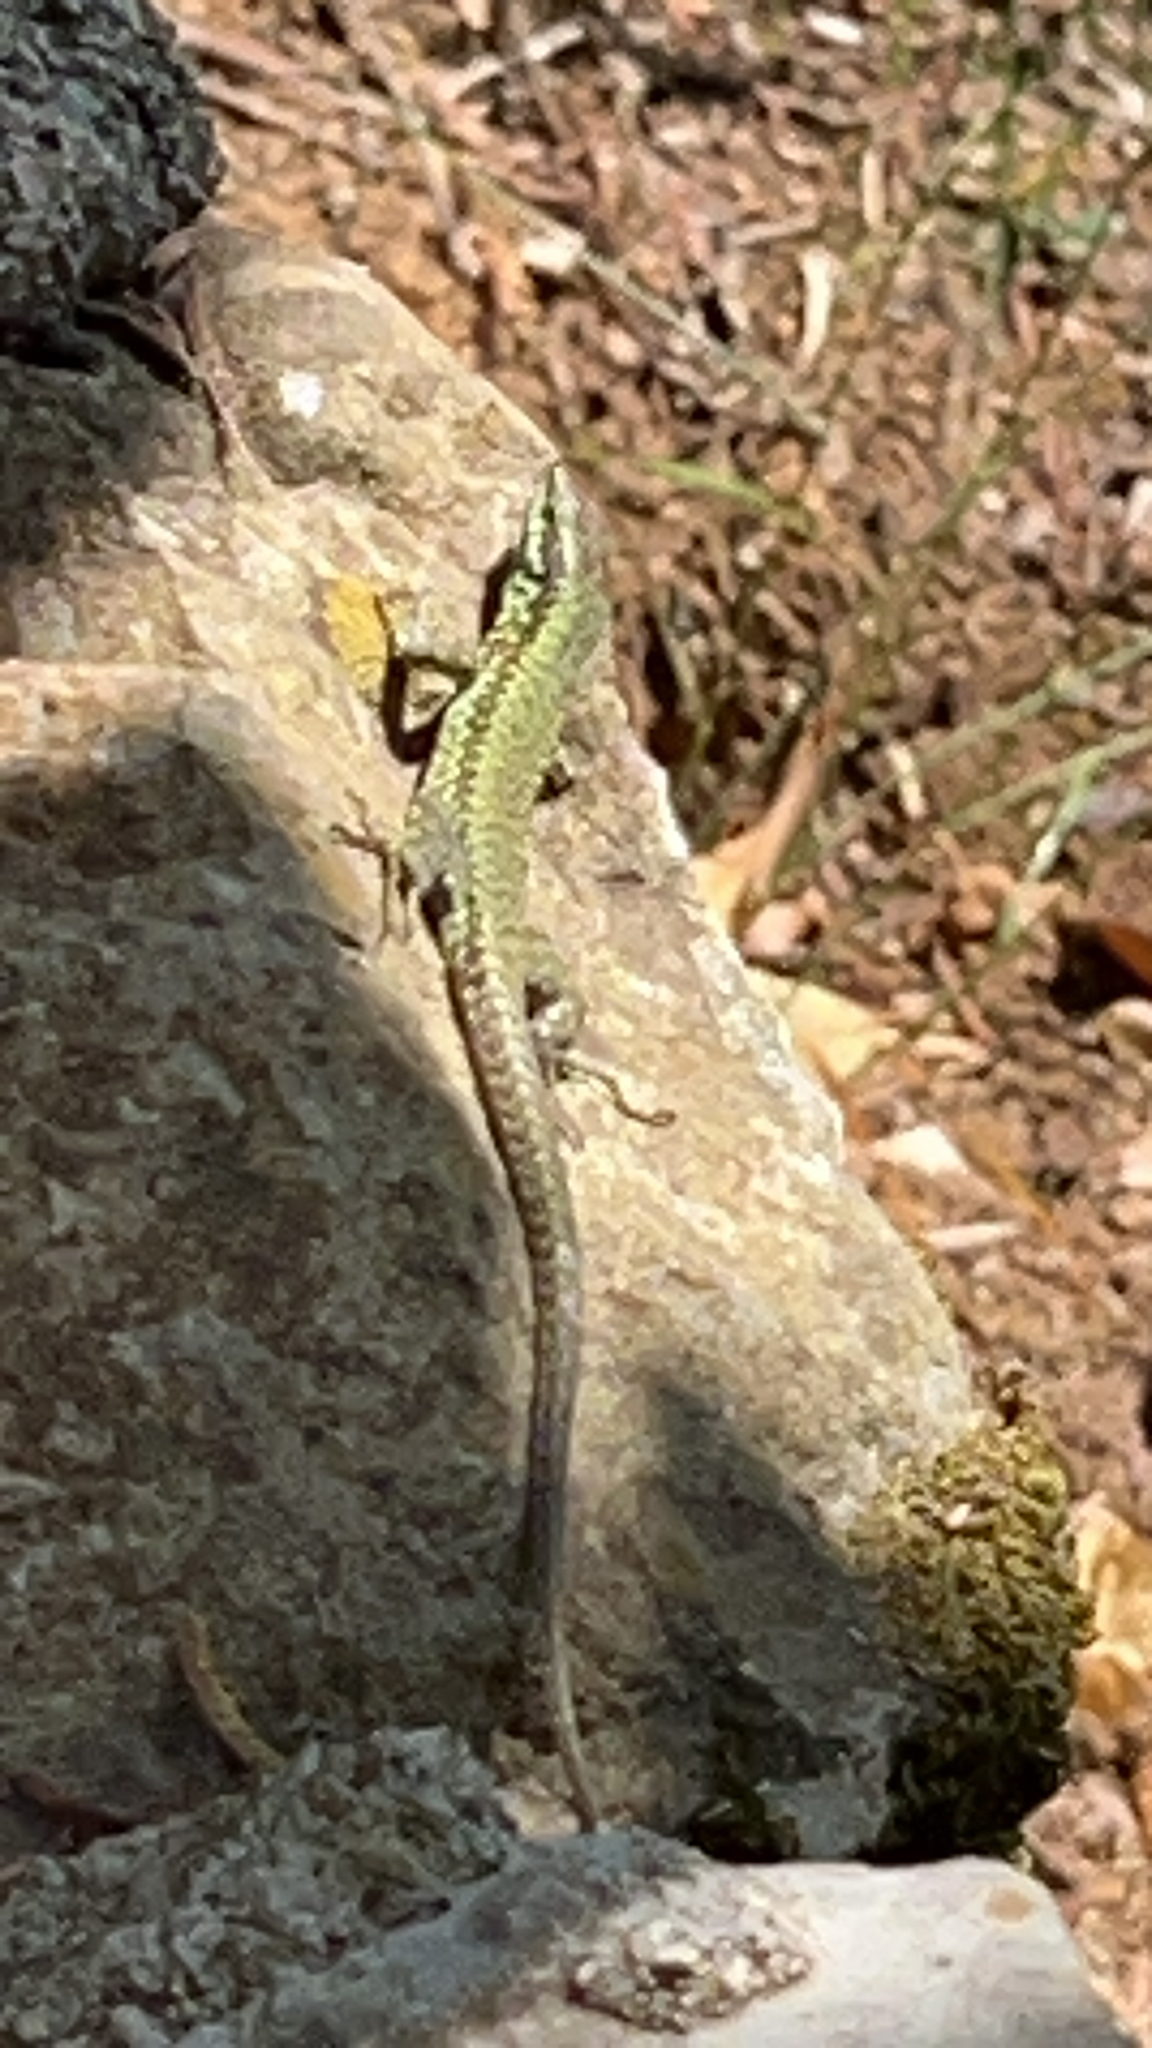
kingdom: Animalia
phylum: Chordata
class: Squamata
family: Lacertidae
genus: Podarcis
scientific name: Podarcis muralis
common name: Common wall lizard
